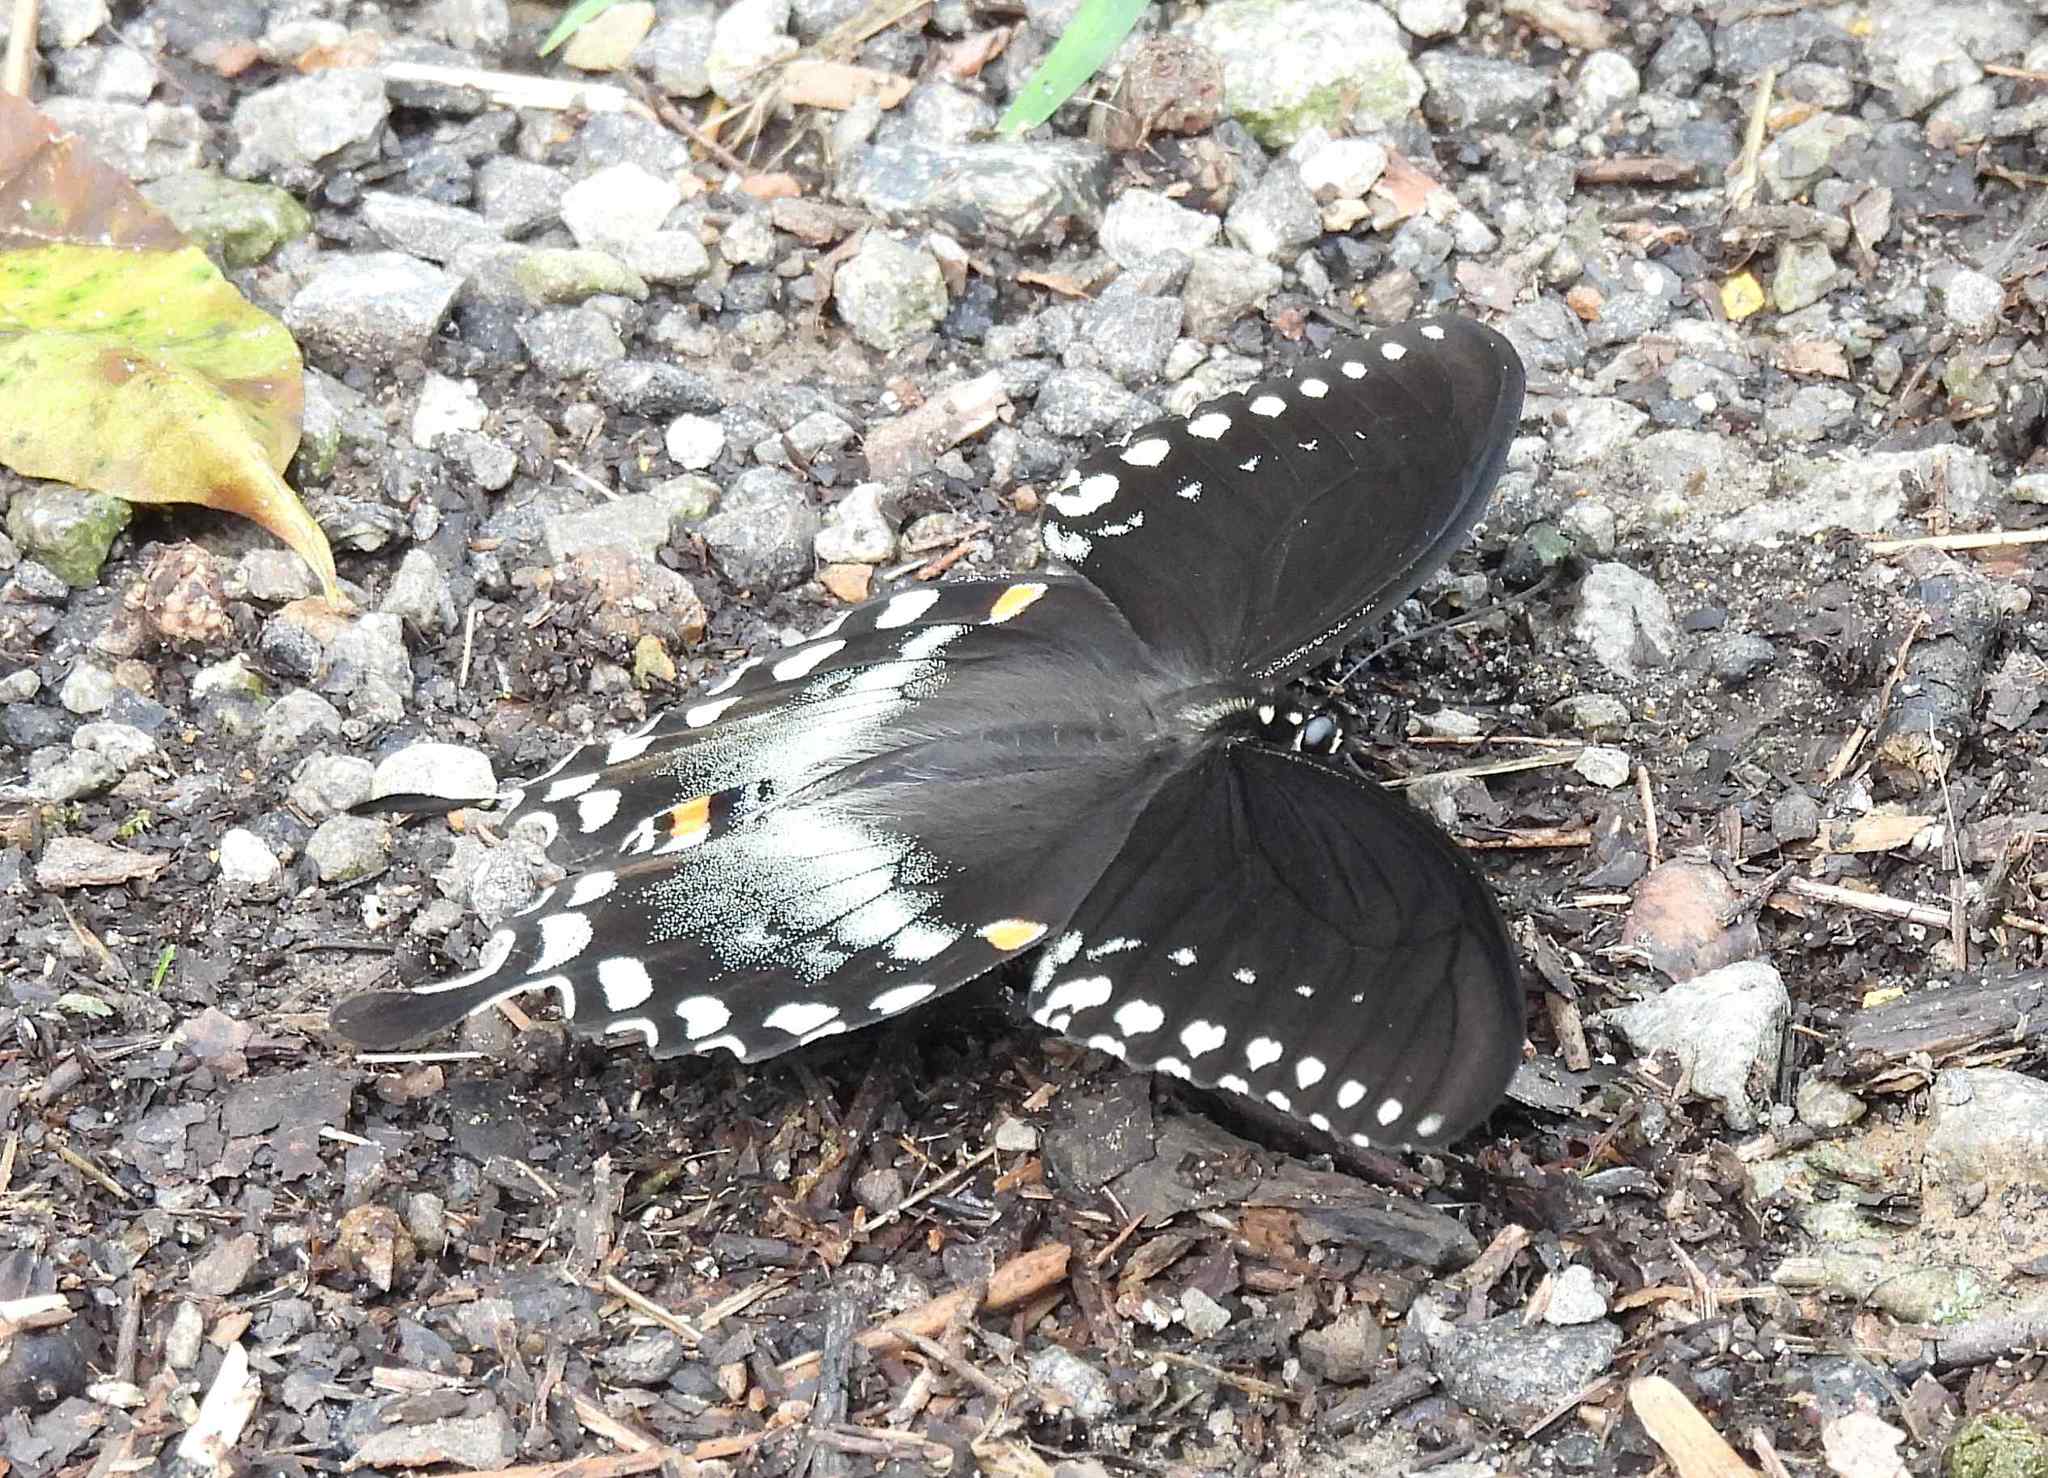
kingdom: Animalia
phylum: Arthropoda
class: Insecta
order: Lepidoptera
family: Papilionidae
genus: Papilio
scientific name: Papilio troilus
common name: Spicebush swallowtail
